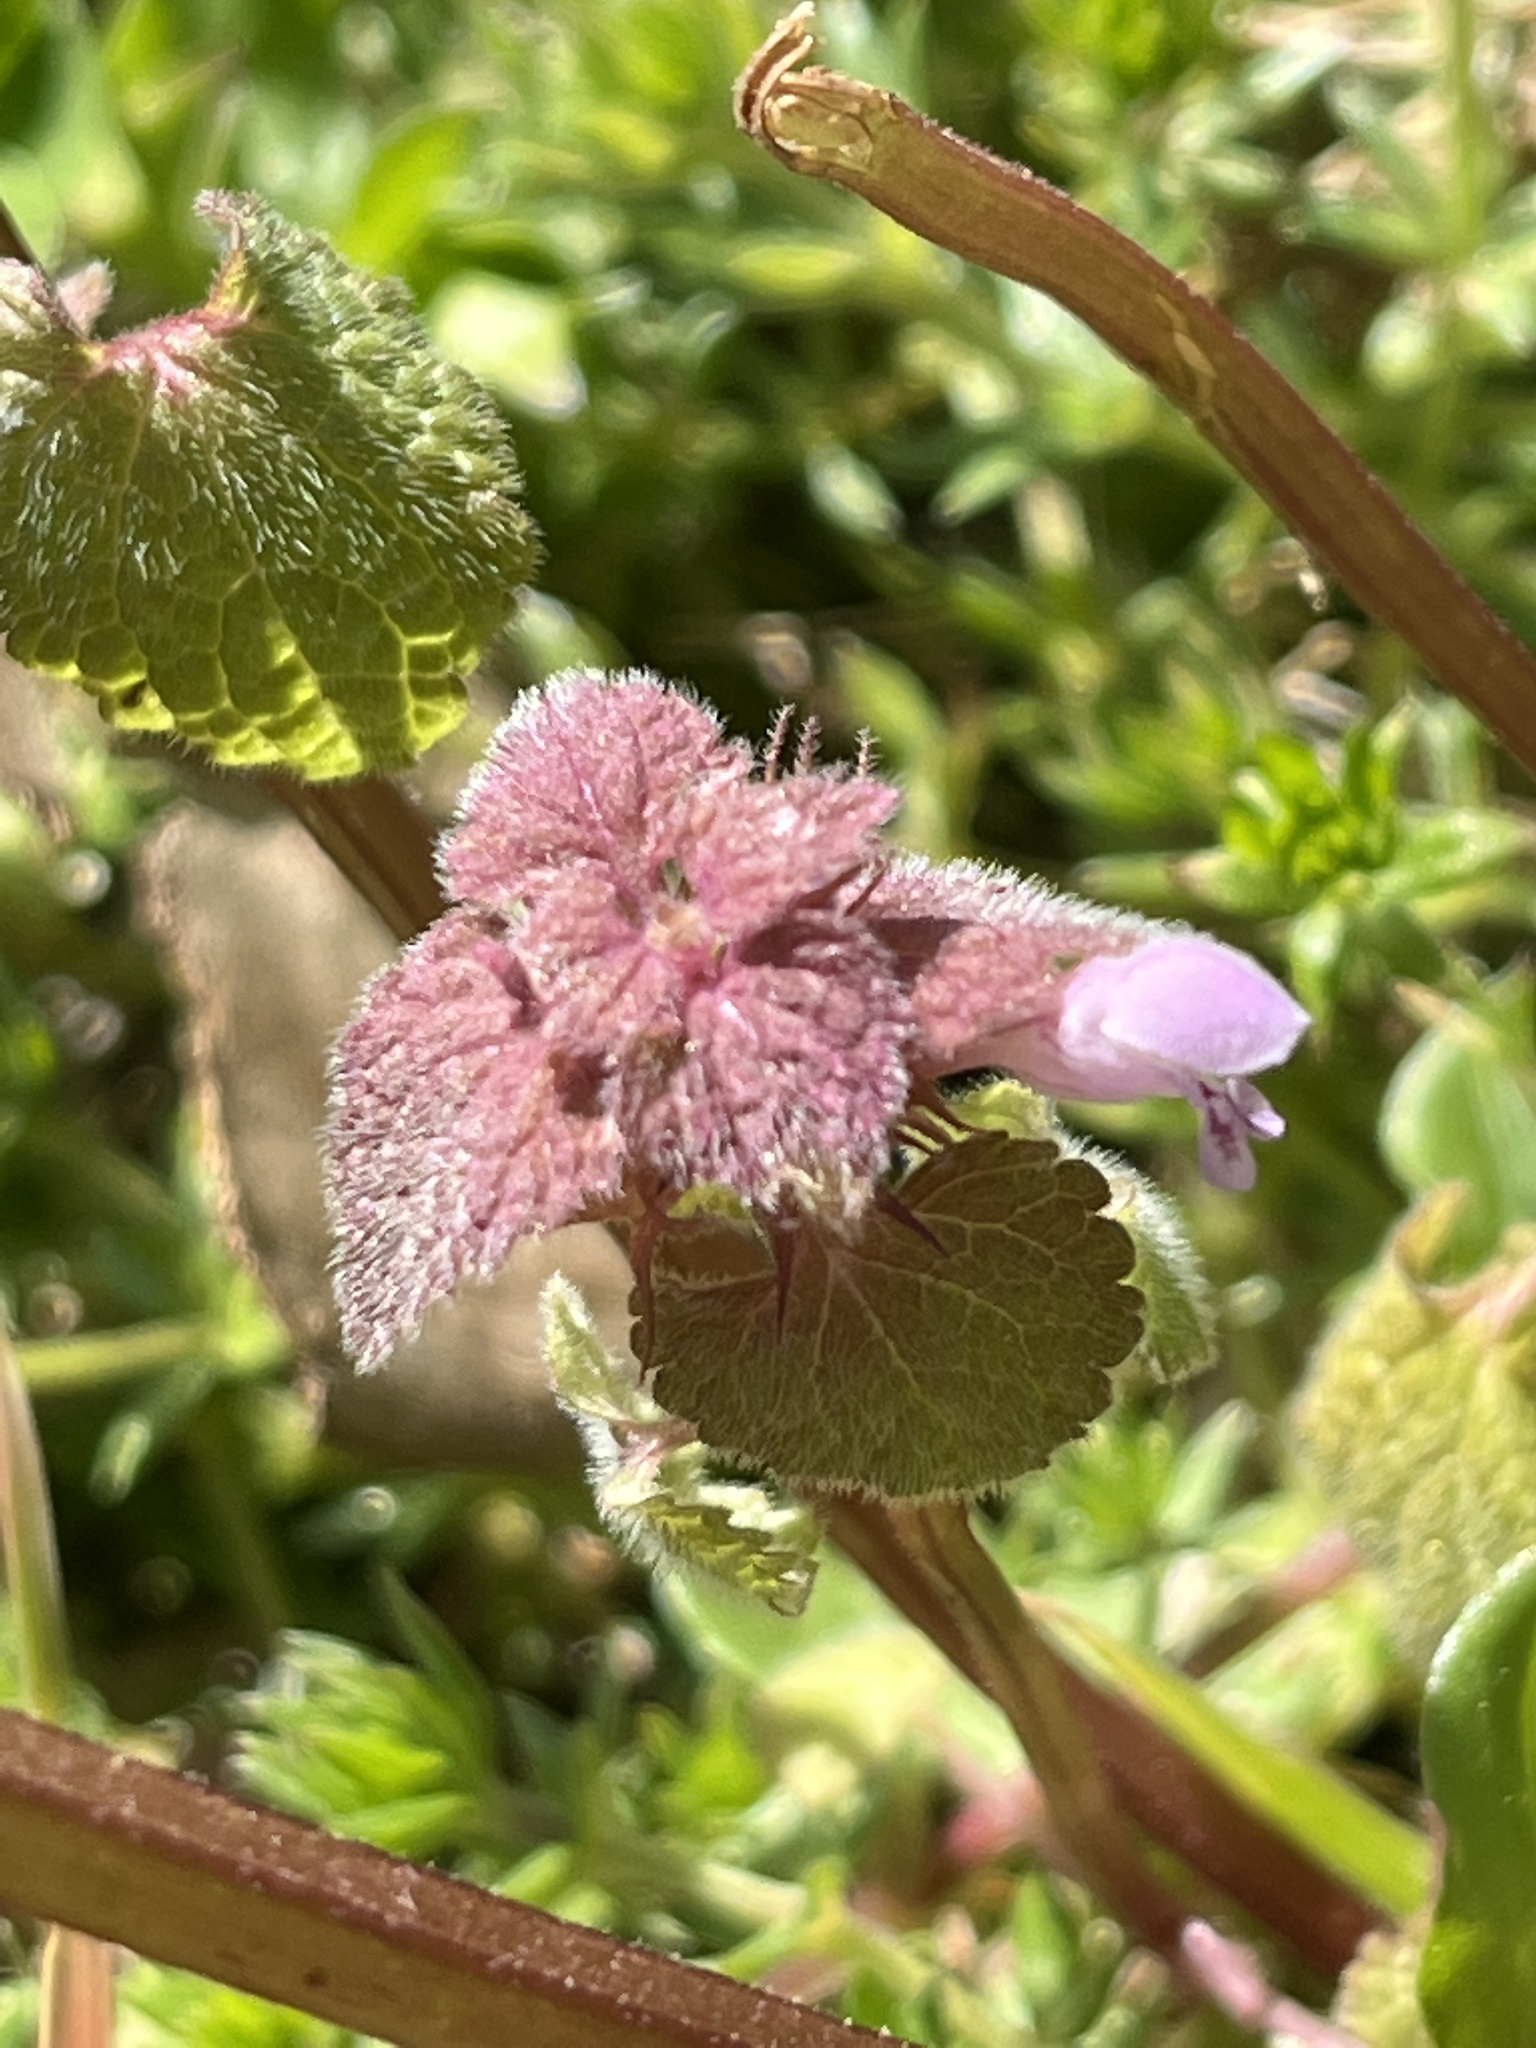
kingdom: Plantae
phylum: Tracheophyta
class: Magnoliopsida
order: Lamiales
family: Lamiaceae
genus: Lamium
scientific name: Lamium purpureum
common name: Red dead-nettle
